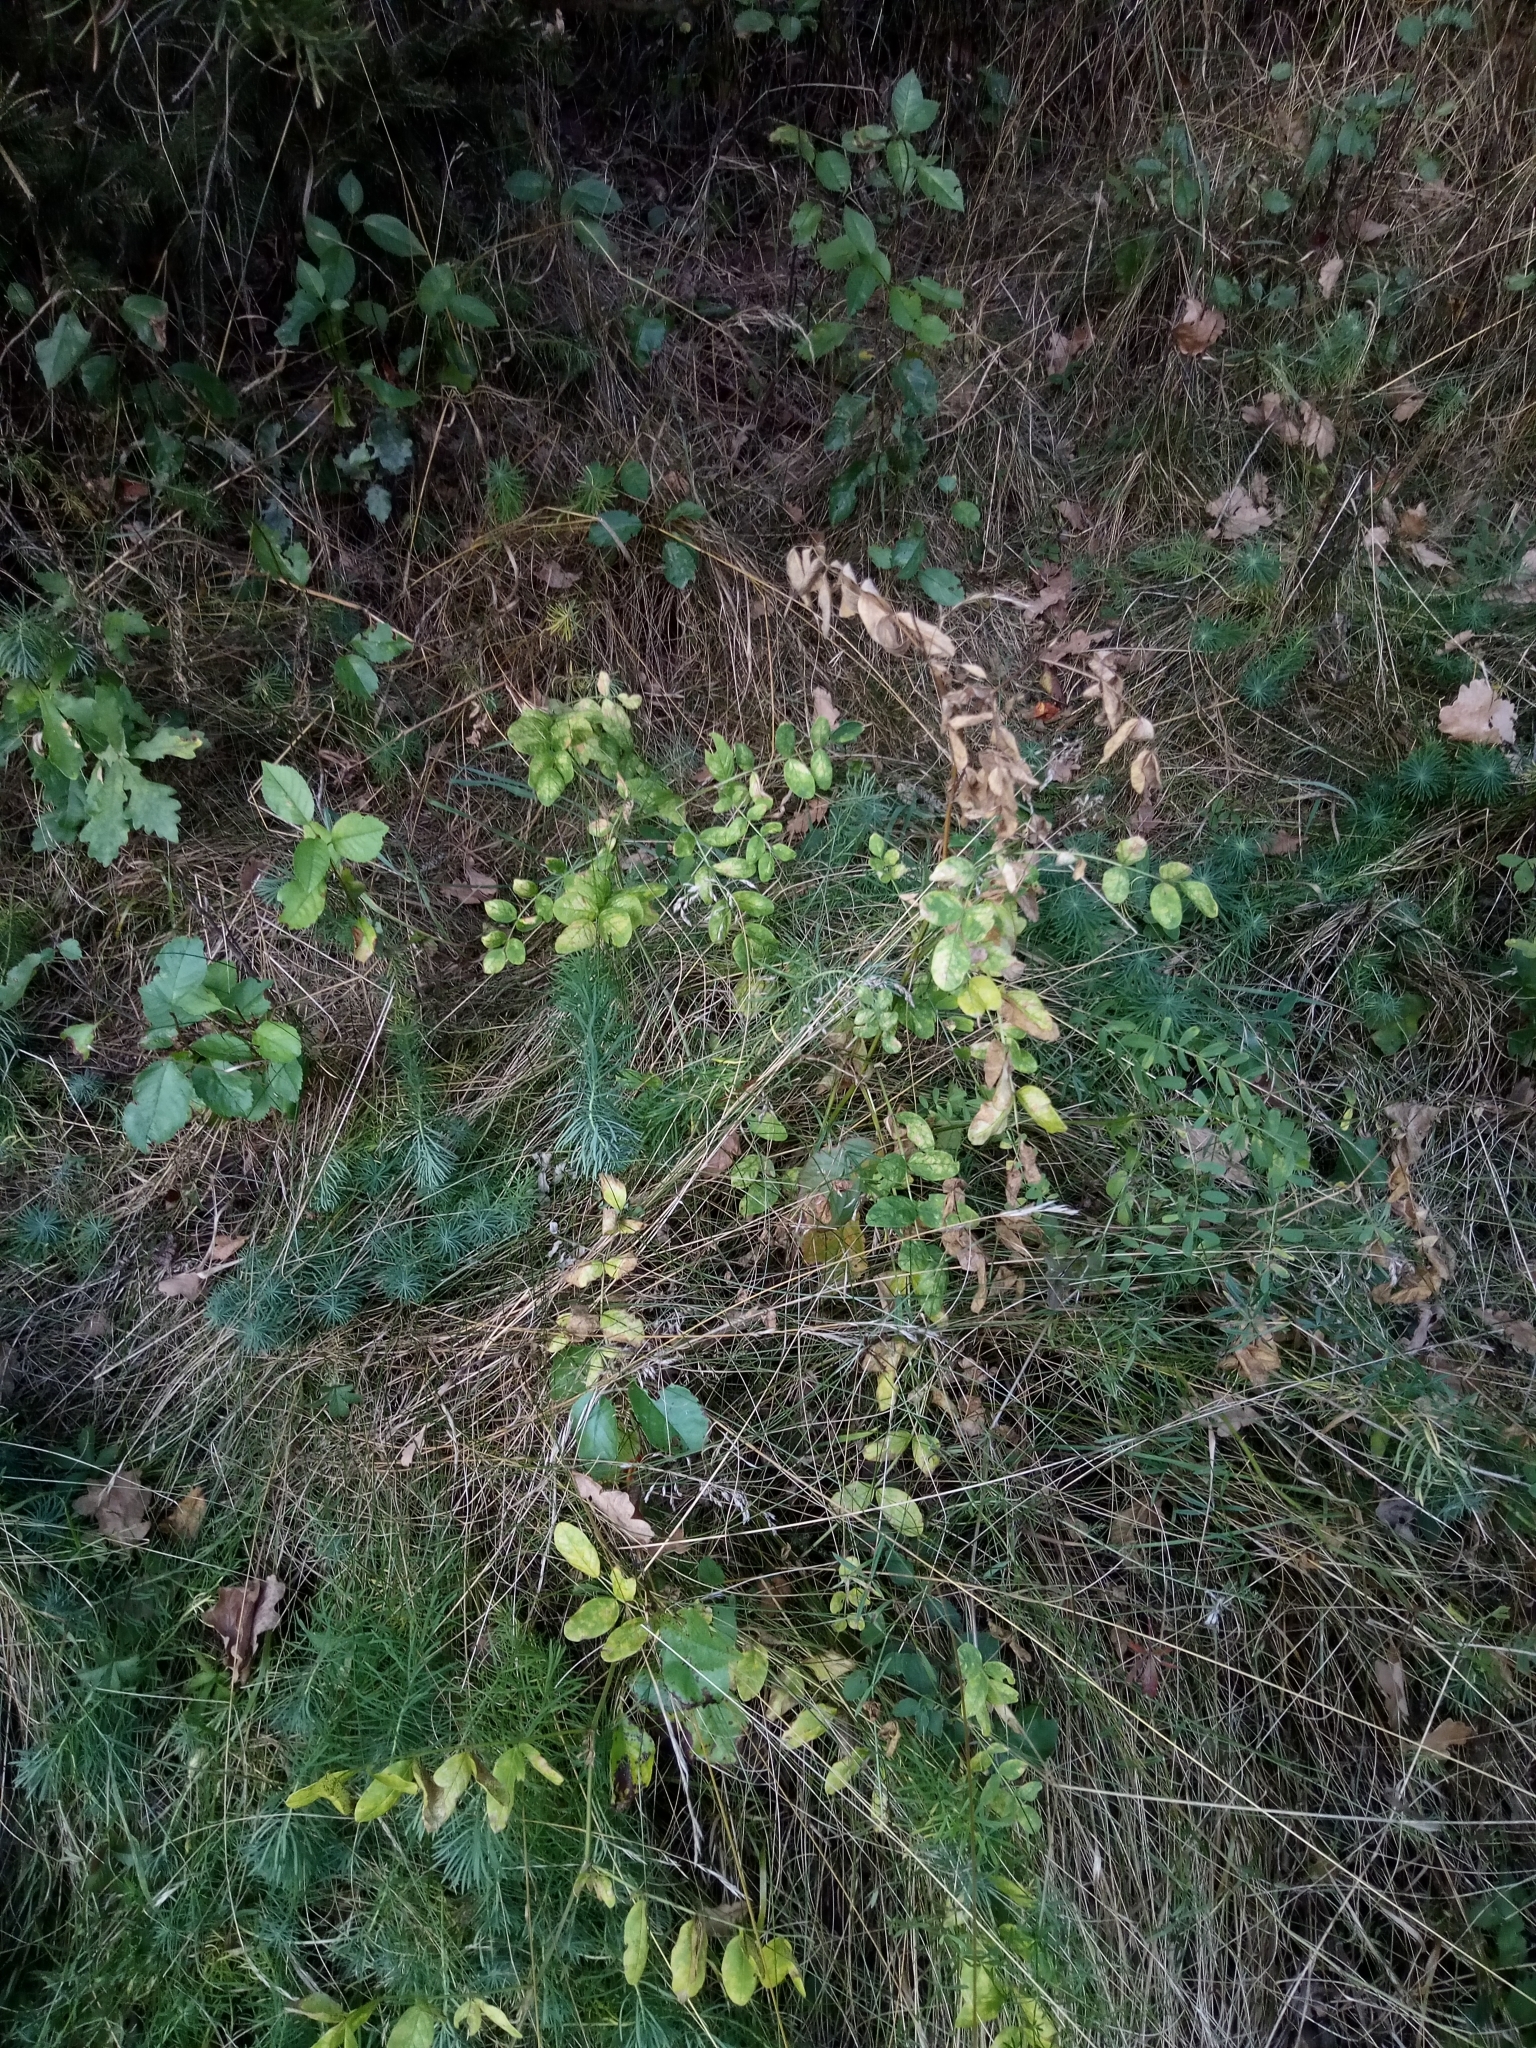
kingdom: Plantae
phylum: Tracheophyta
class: Magnoliopsida
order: Fabales
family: Fabaceae
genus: Astragalus
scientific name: Astragalus glycyphyllos
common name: Wild liquorice
